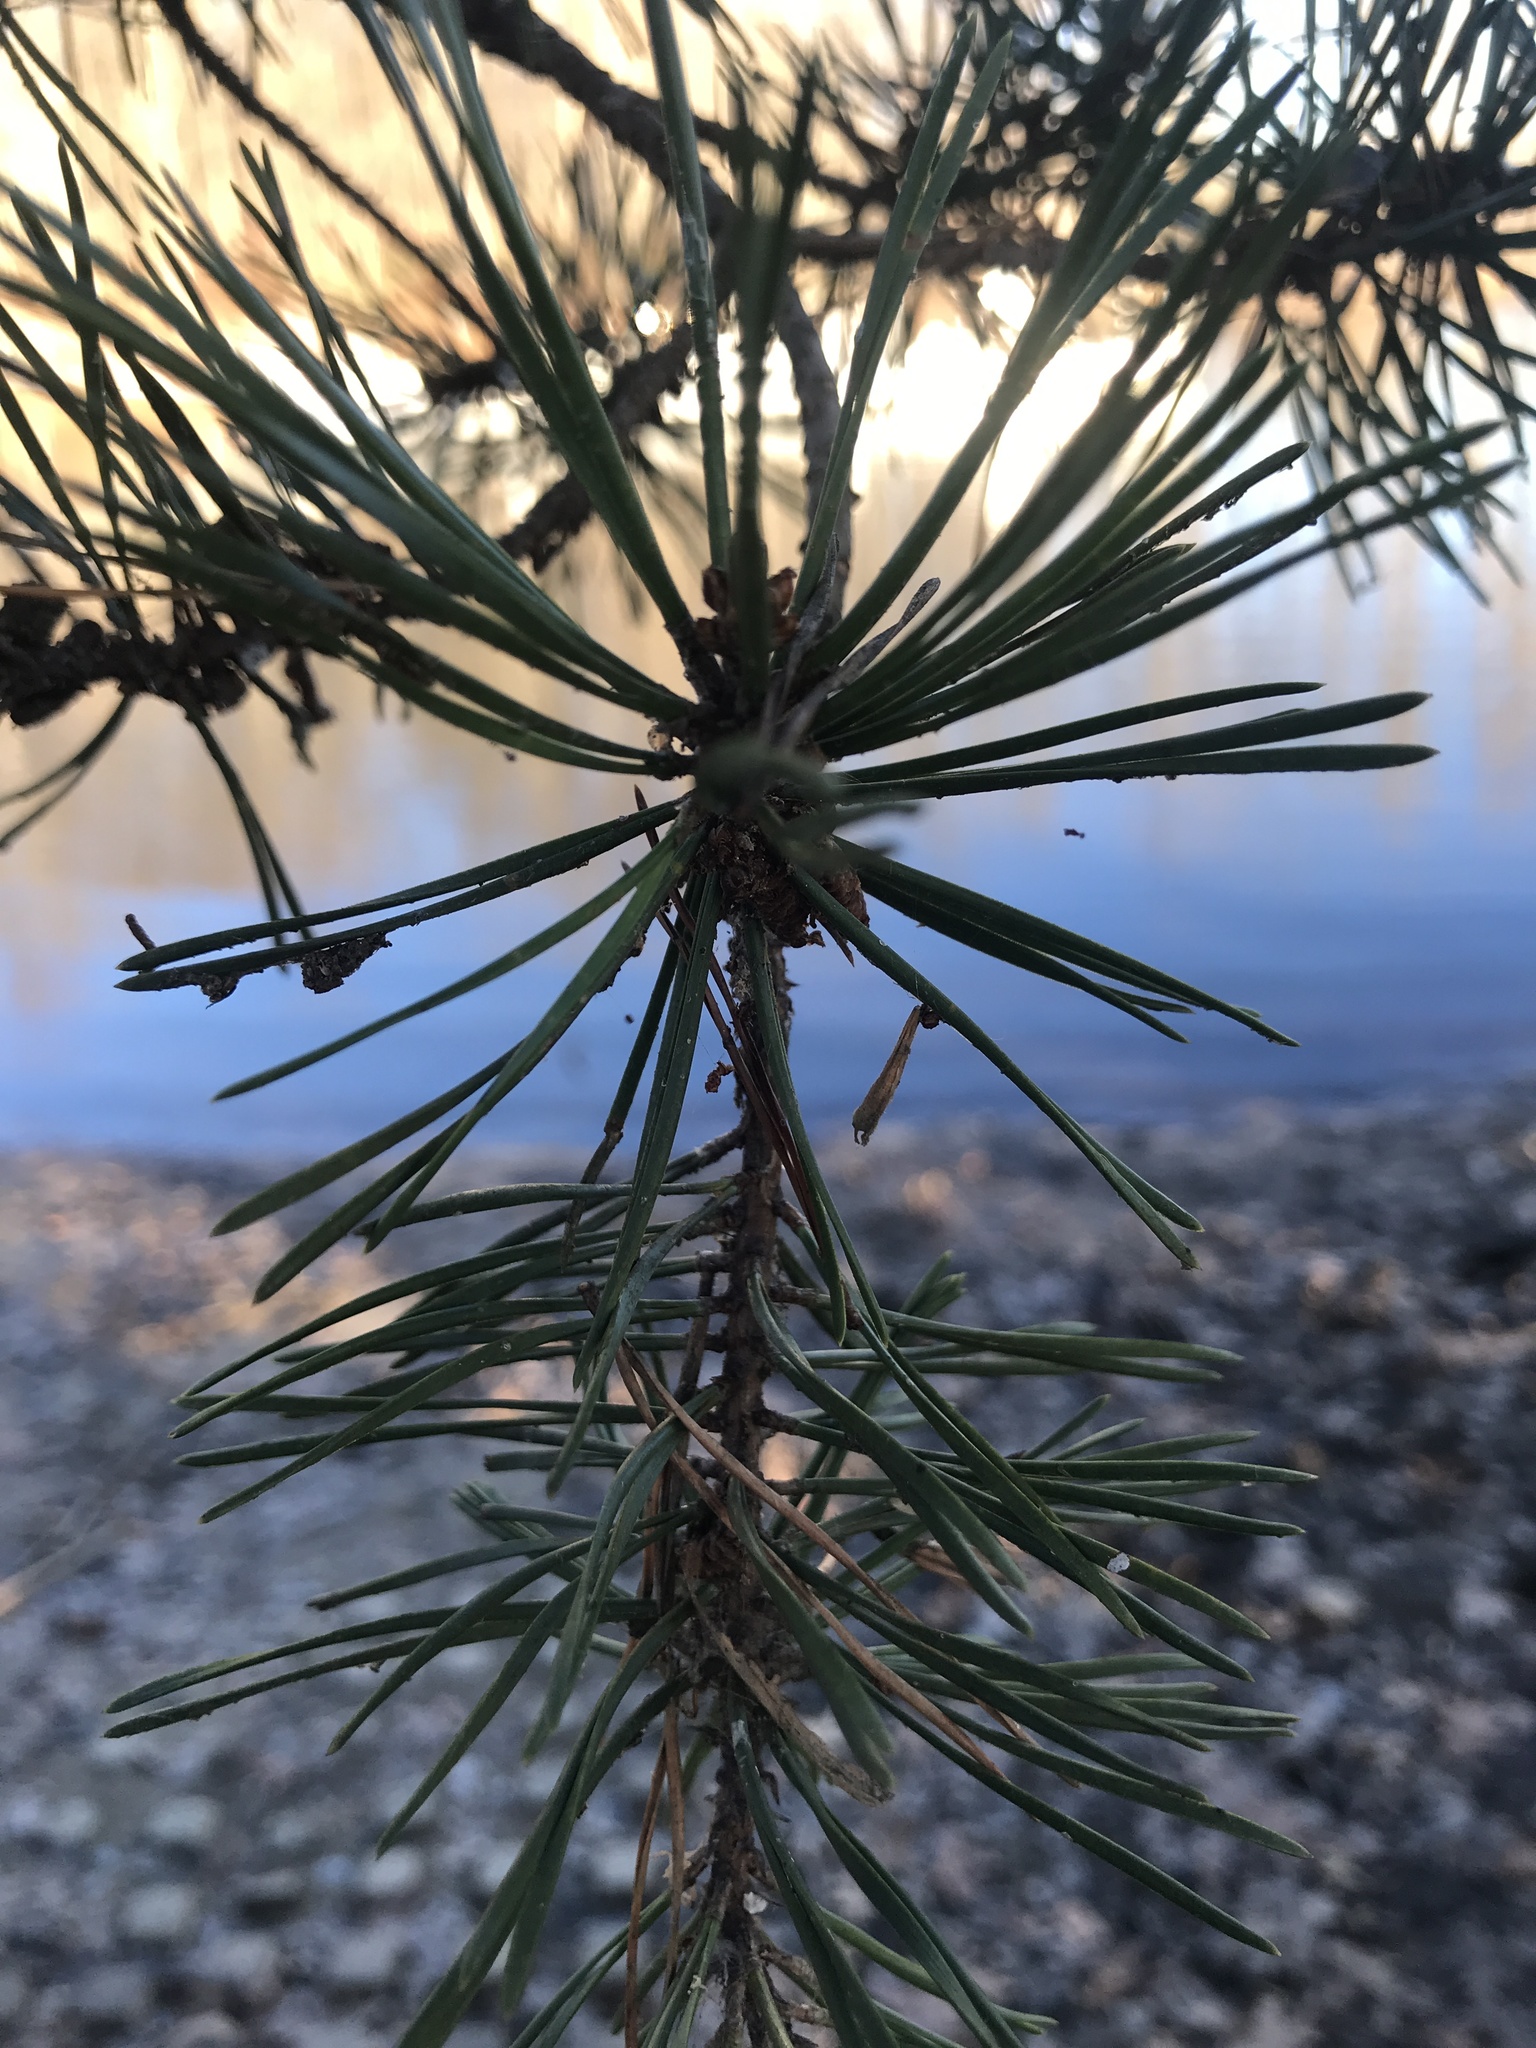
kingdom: Plantae
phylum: Tracheophyta
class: Pinopsida
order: Pinales
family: Pinaceae
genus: Pinus
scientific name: Pinus virginiana
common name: Scrub pine
